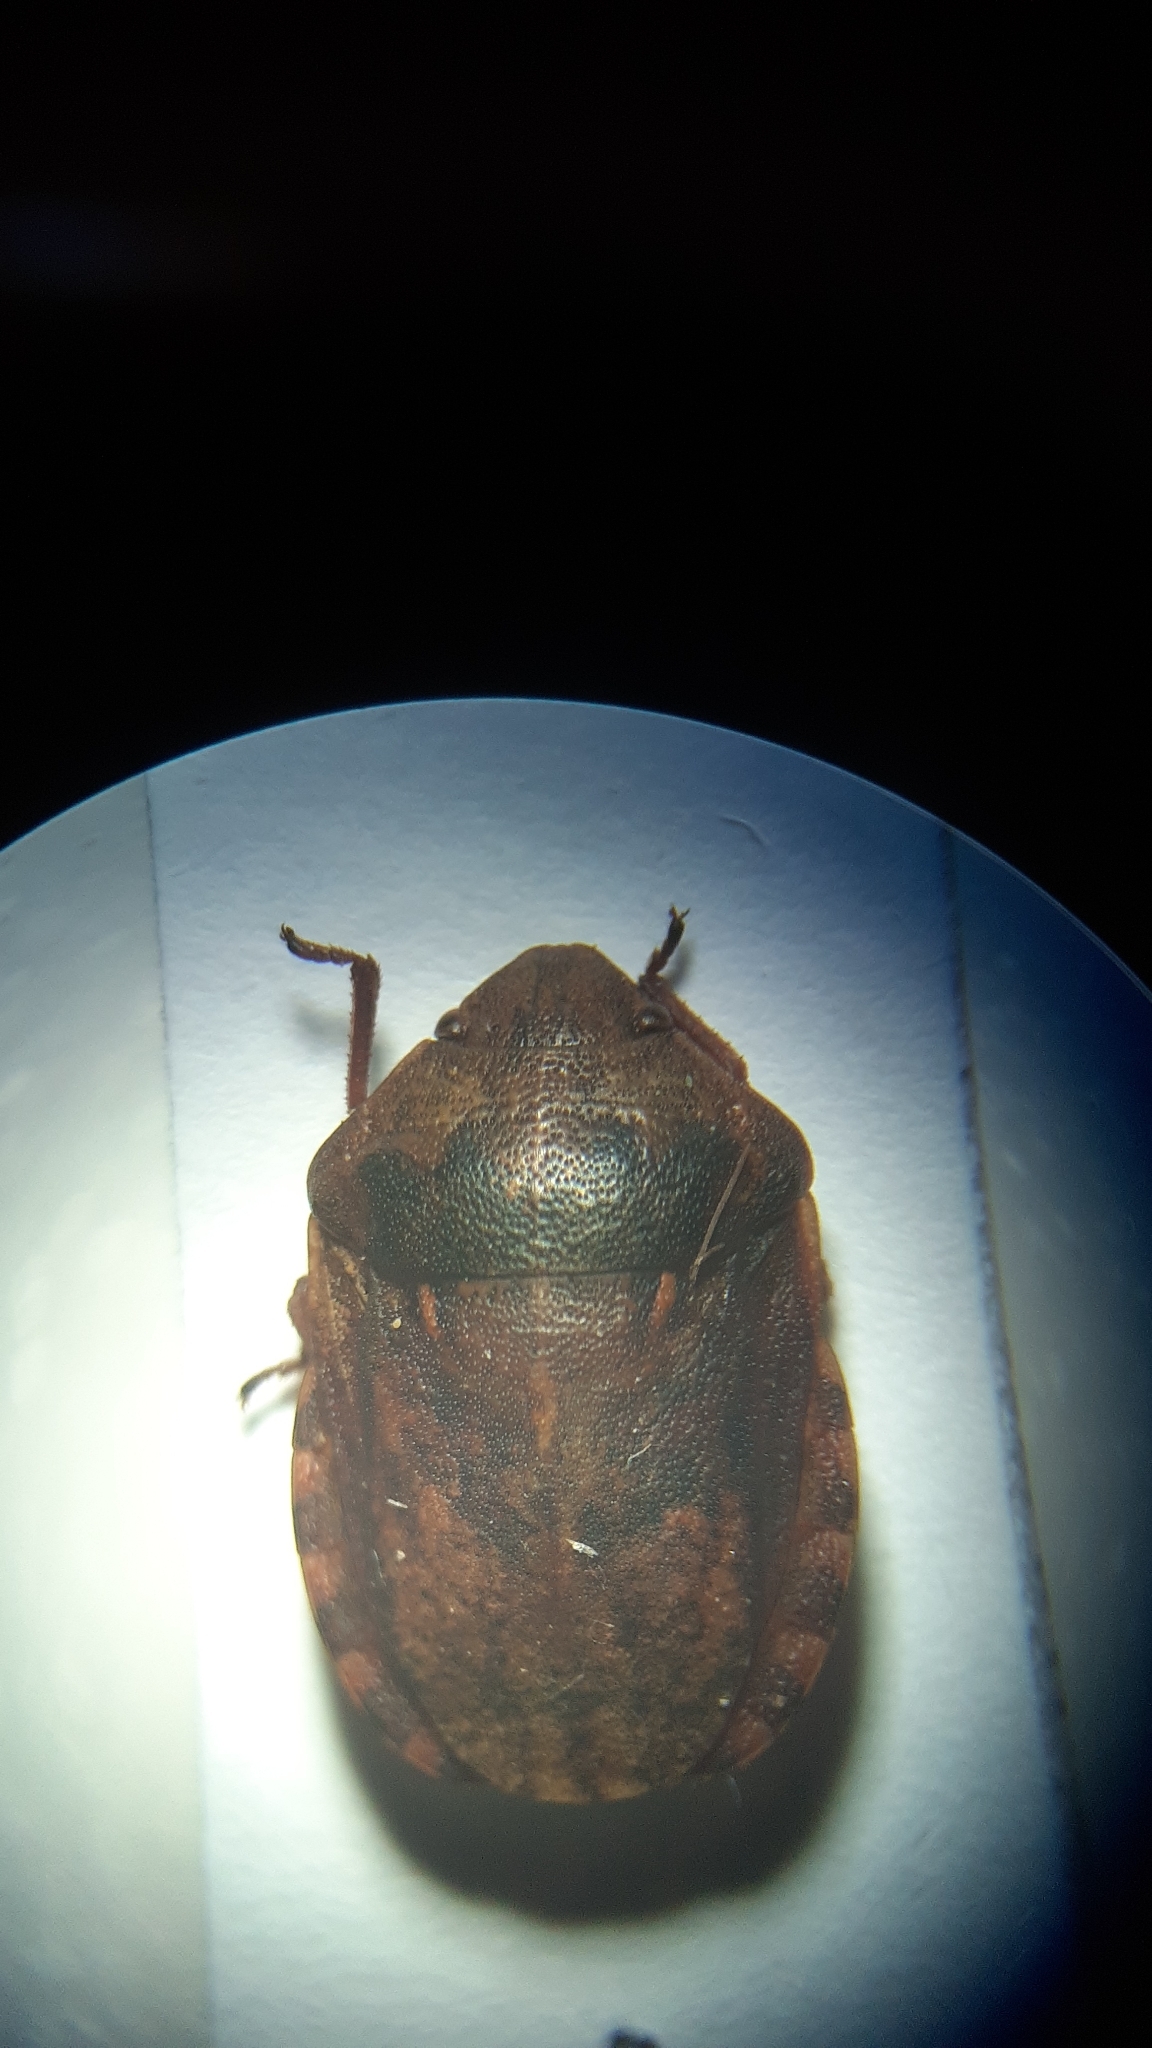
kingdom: Animalia
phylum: Arthropoda
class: Insecta
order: Hemiptera
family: Scutelleridae
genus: Eurygaster
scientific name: Eurygaster maura
